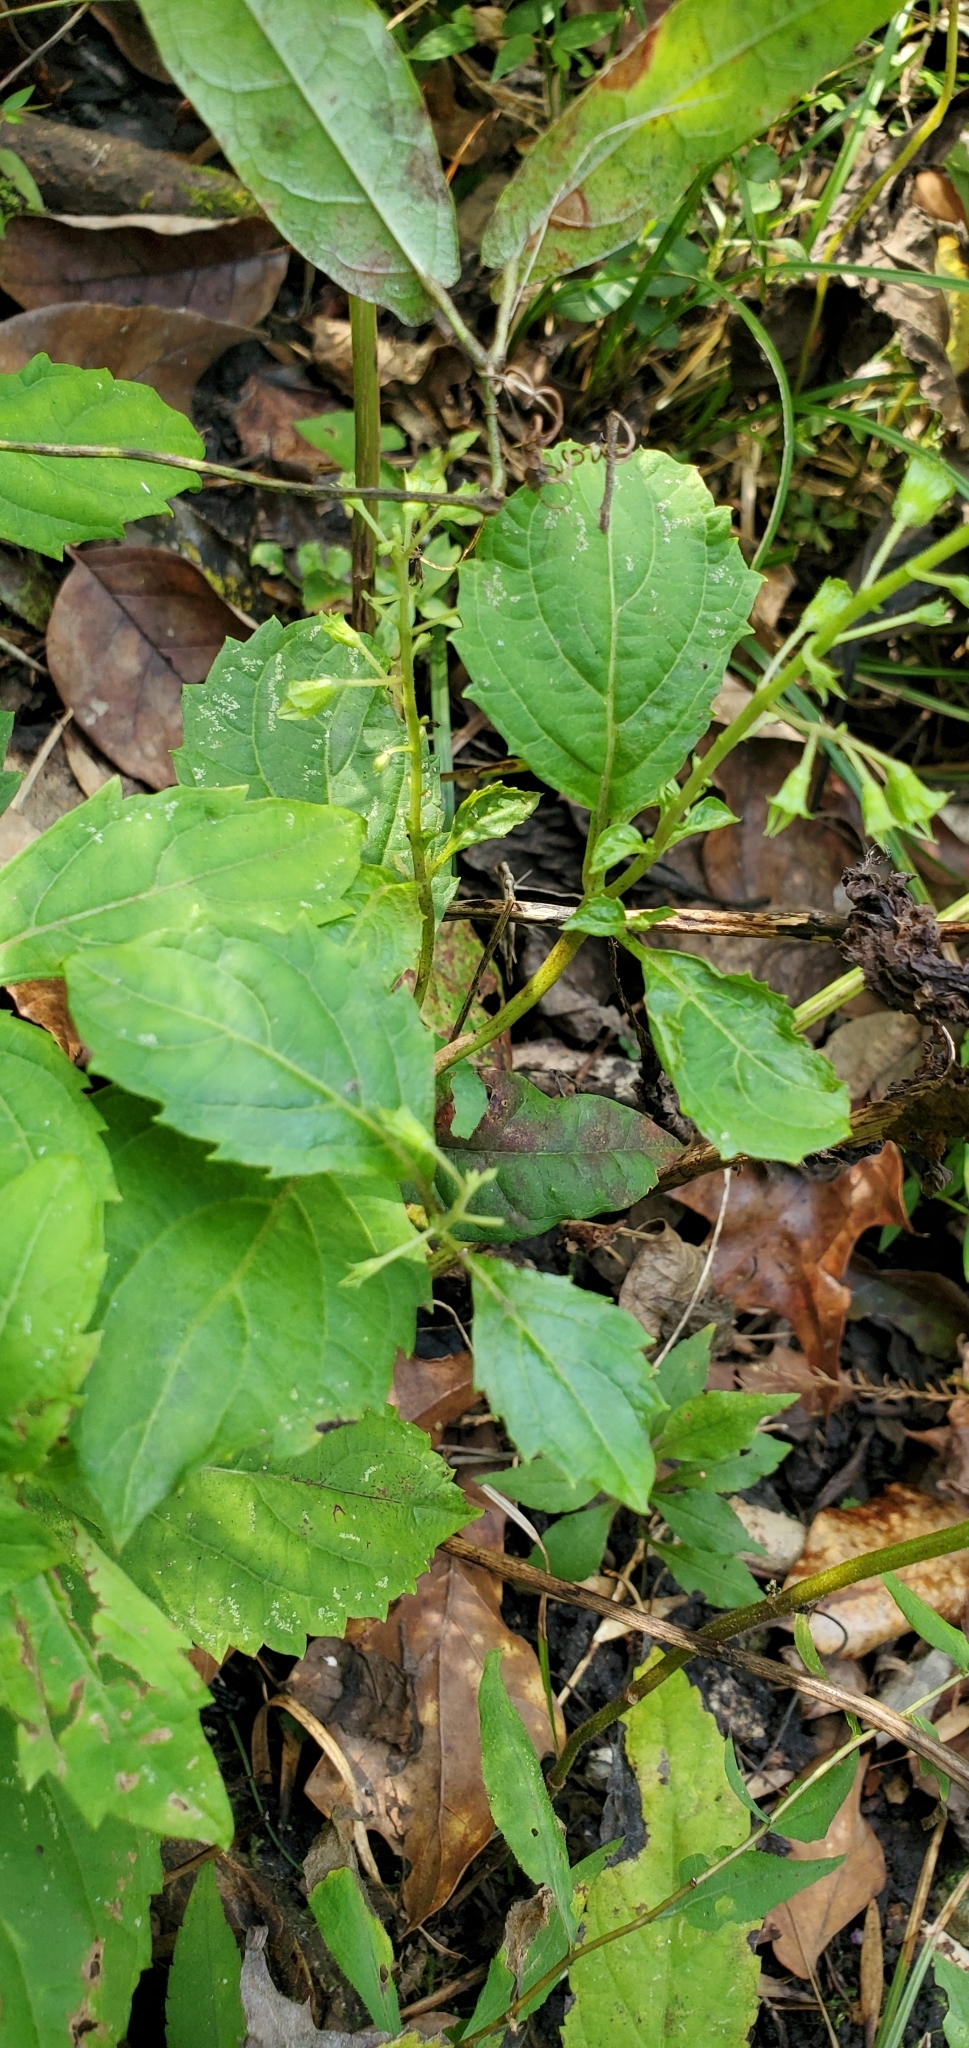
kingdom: Plantae
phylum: Tracheophyta
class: Magnoliopsida
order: Lamiales
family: Lamiaceae
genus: Collinsonia
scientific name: Collinsonia canadensis
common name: Northern horsebalm
